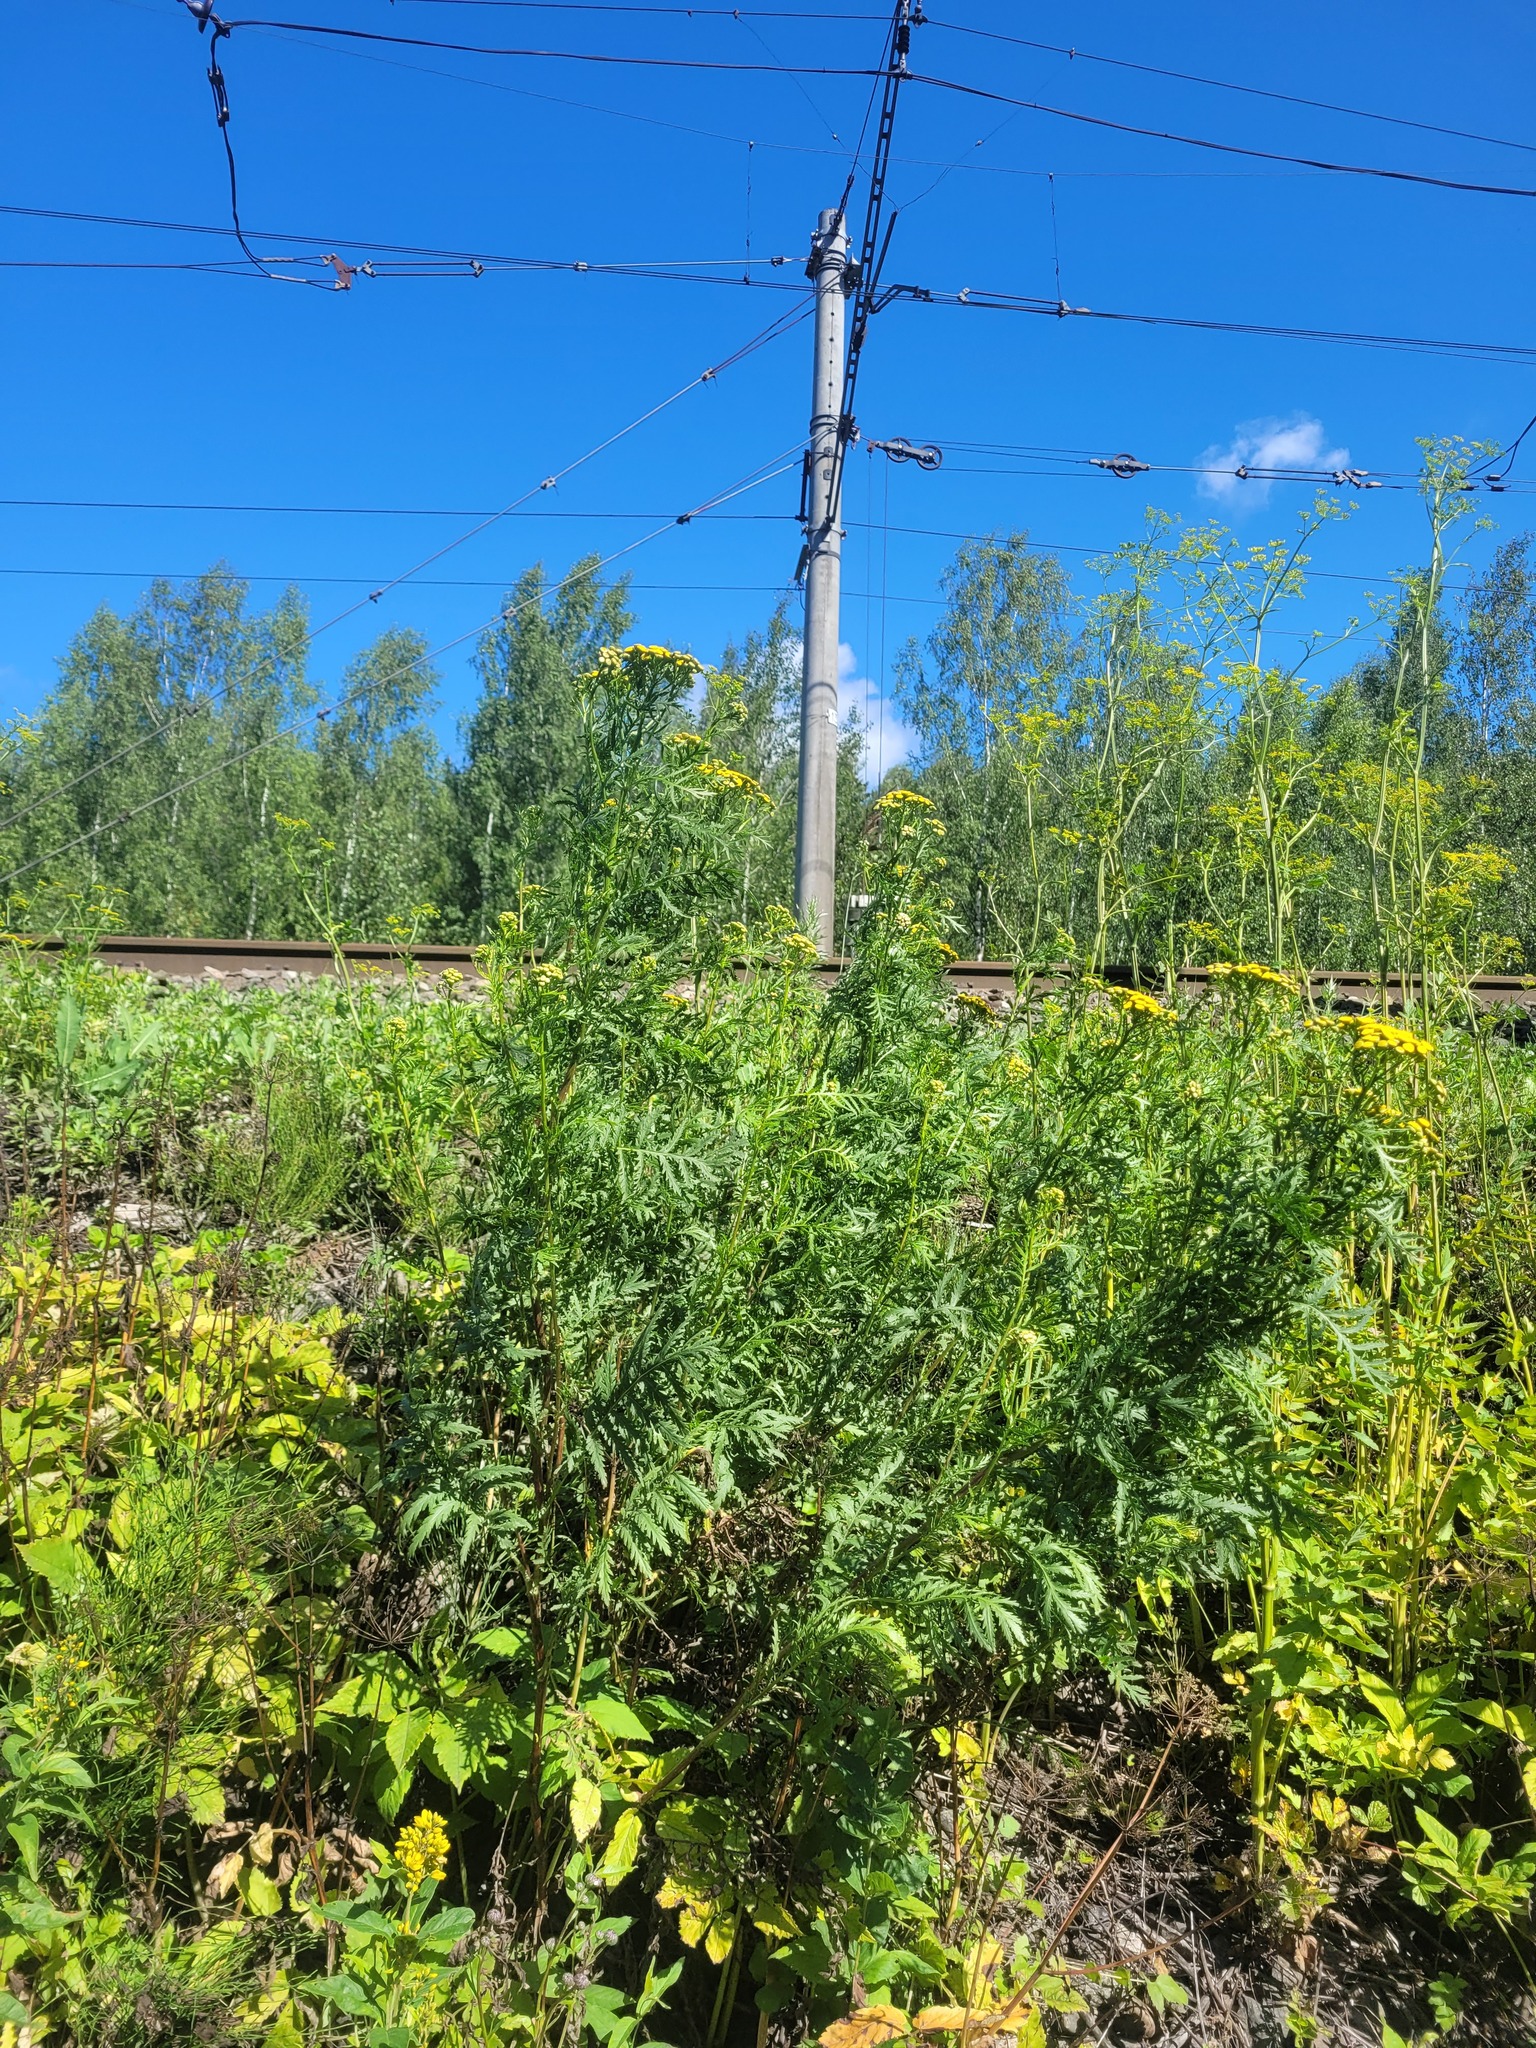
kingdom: Plantae
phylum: Tracheophyta
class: Magnoliopsida
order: Asterales
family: Asteraceae
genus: Tanacetum
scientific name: Tanacetum vulgare
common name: Common tansy
